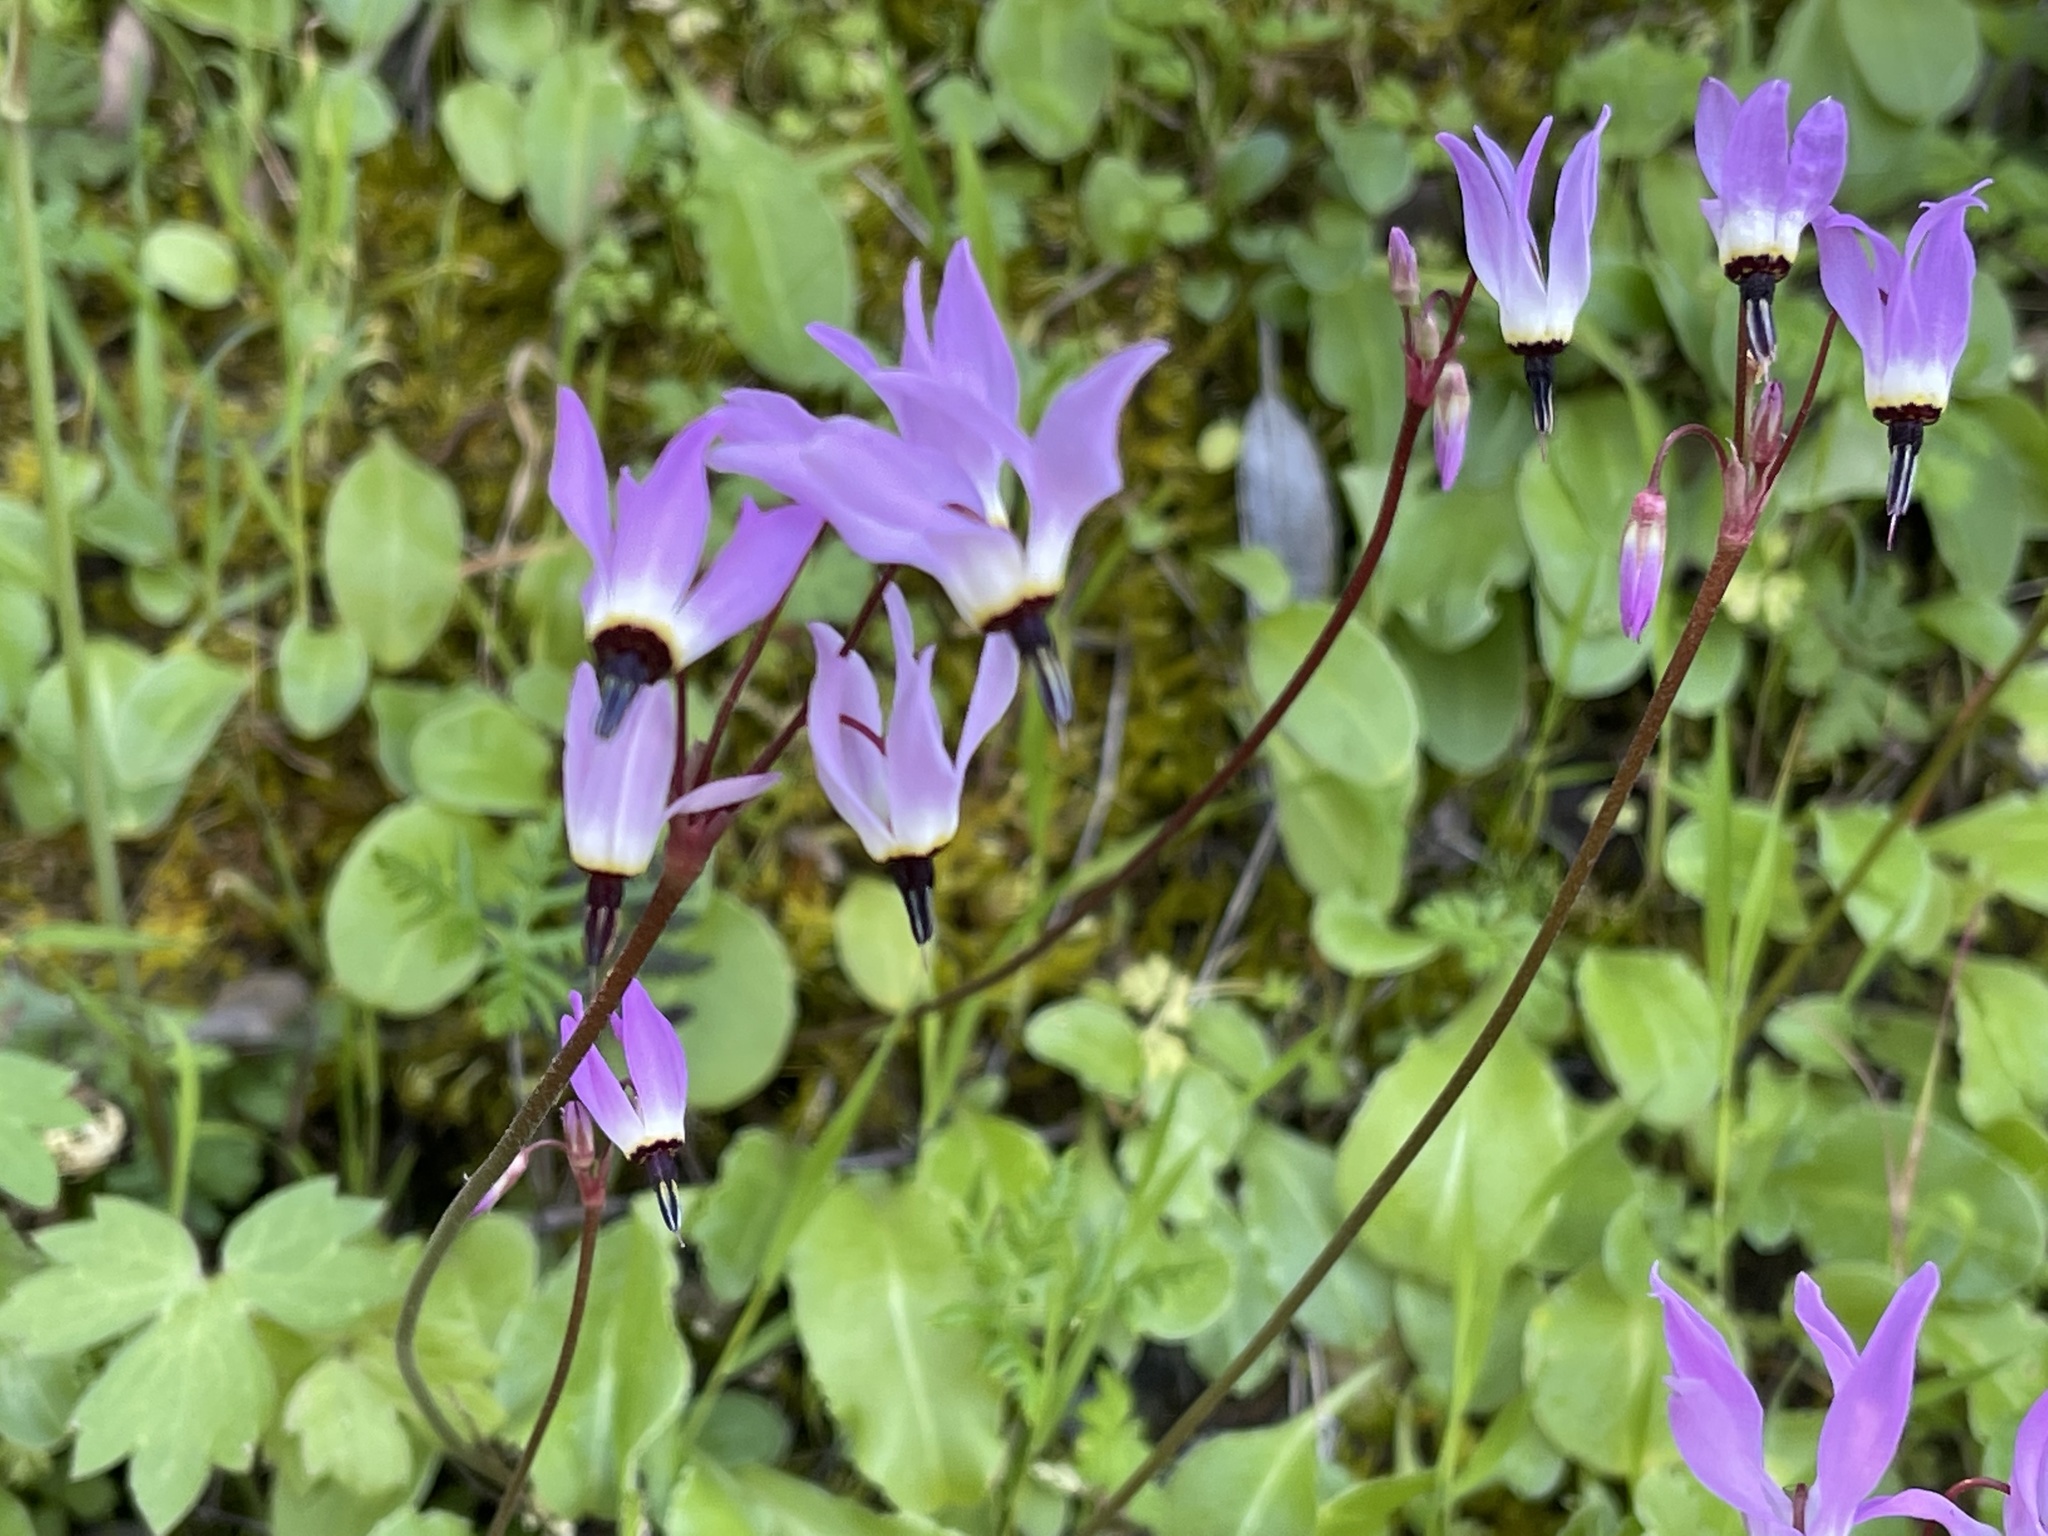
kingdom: Plantae
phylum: Tracheophyta
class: Magnoliopsida
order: Ericales
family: Primulaceae
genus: Dodecatheon
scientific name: Dodecatheon hendersonii
